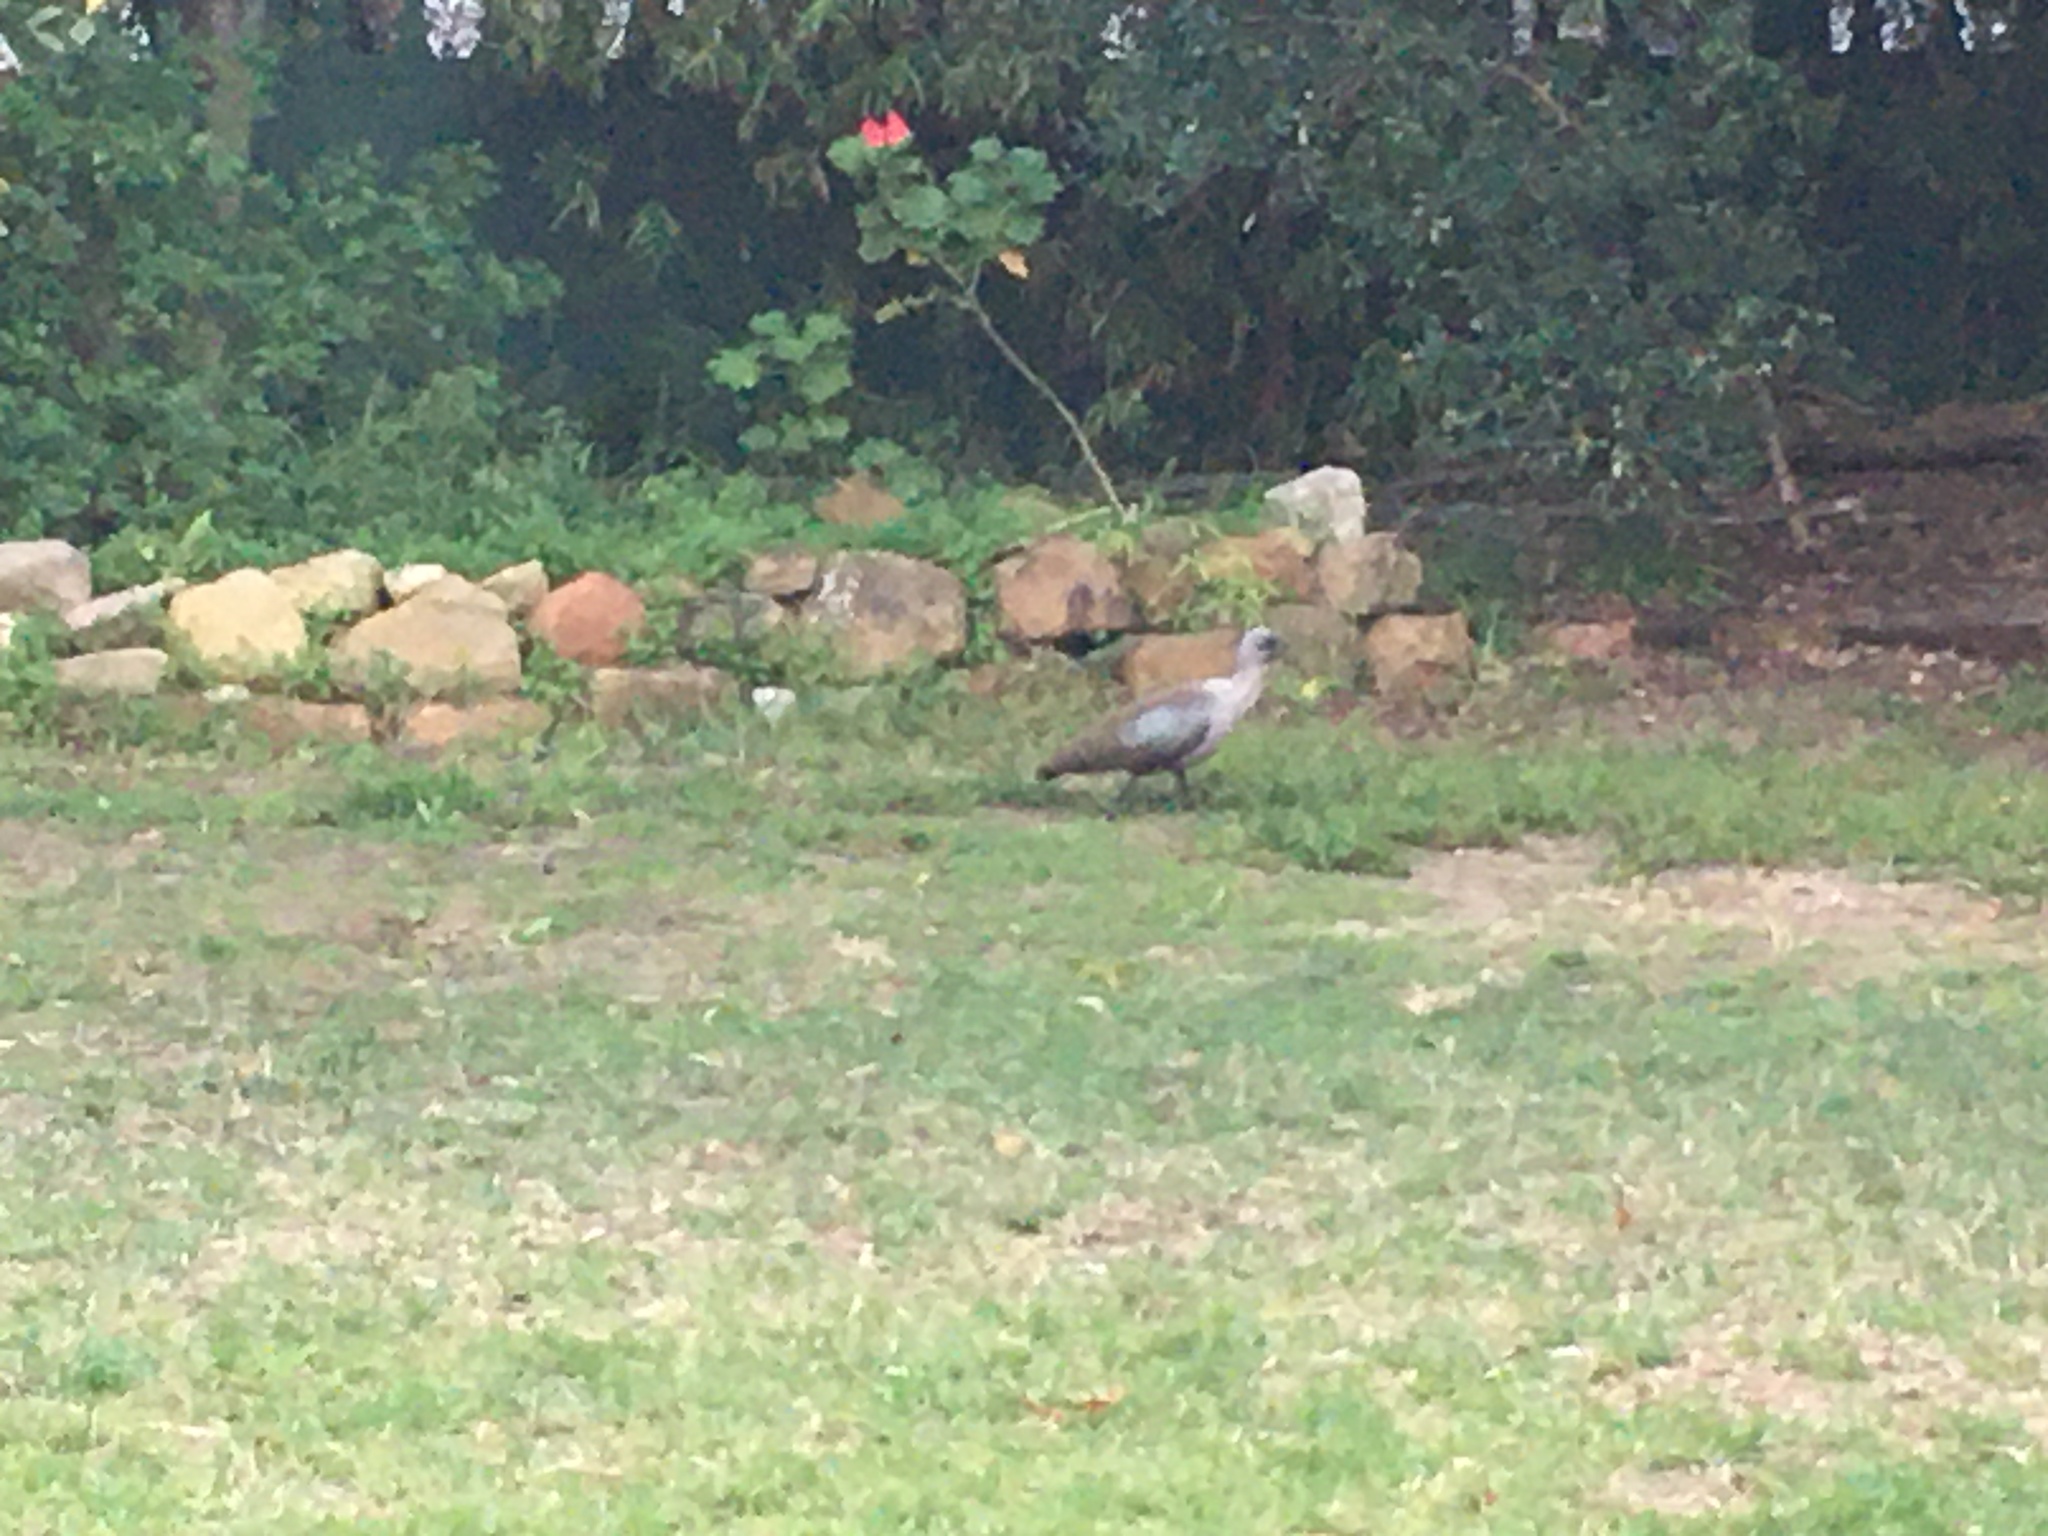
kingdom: Animalia
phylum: Chordata
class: Aves
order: Pelecaniformes
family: Threskiornithidae
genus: Bostrychia
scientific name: Bostrychia hagedash
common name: Hadada ibis
